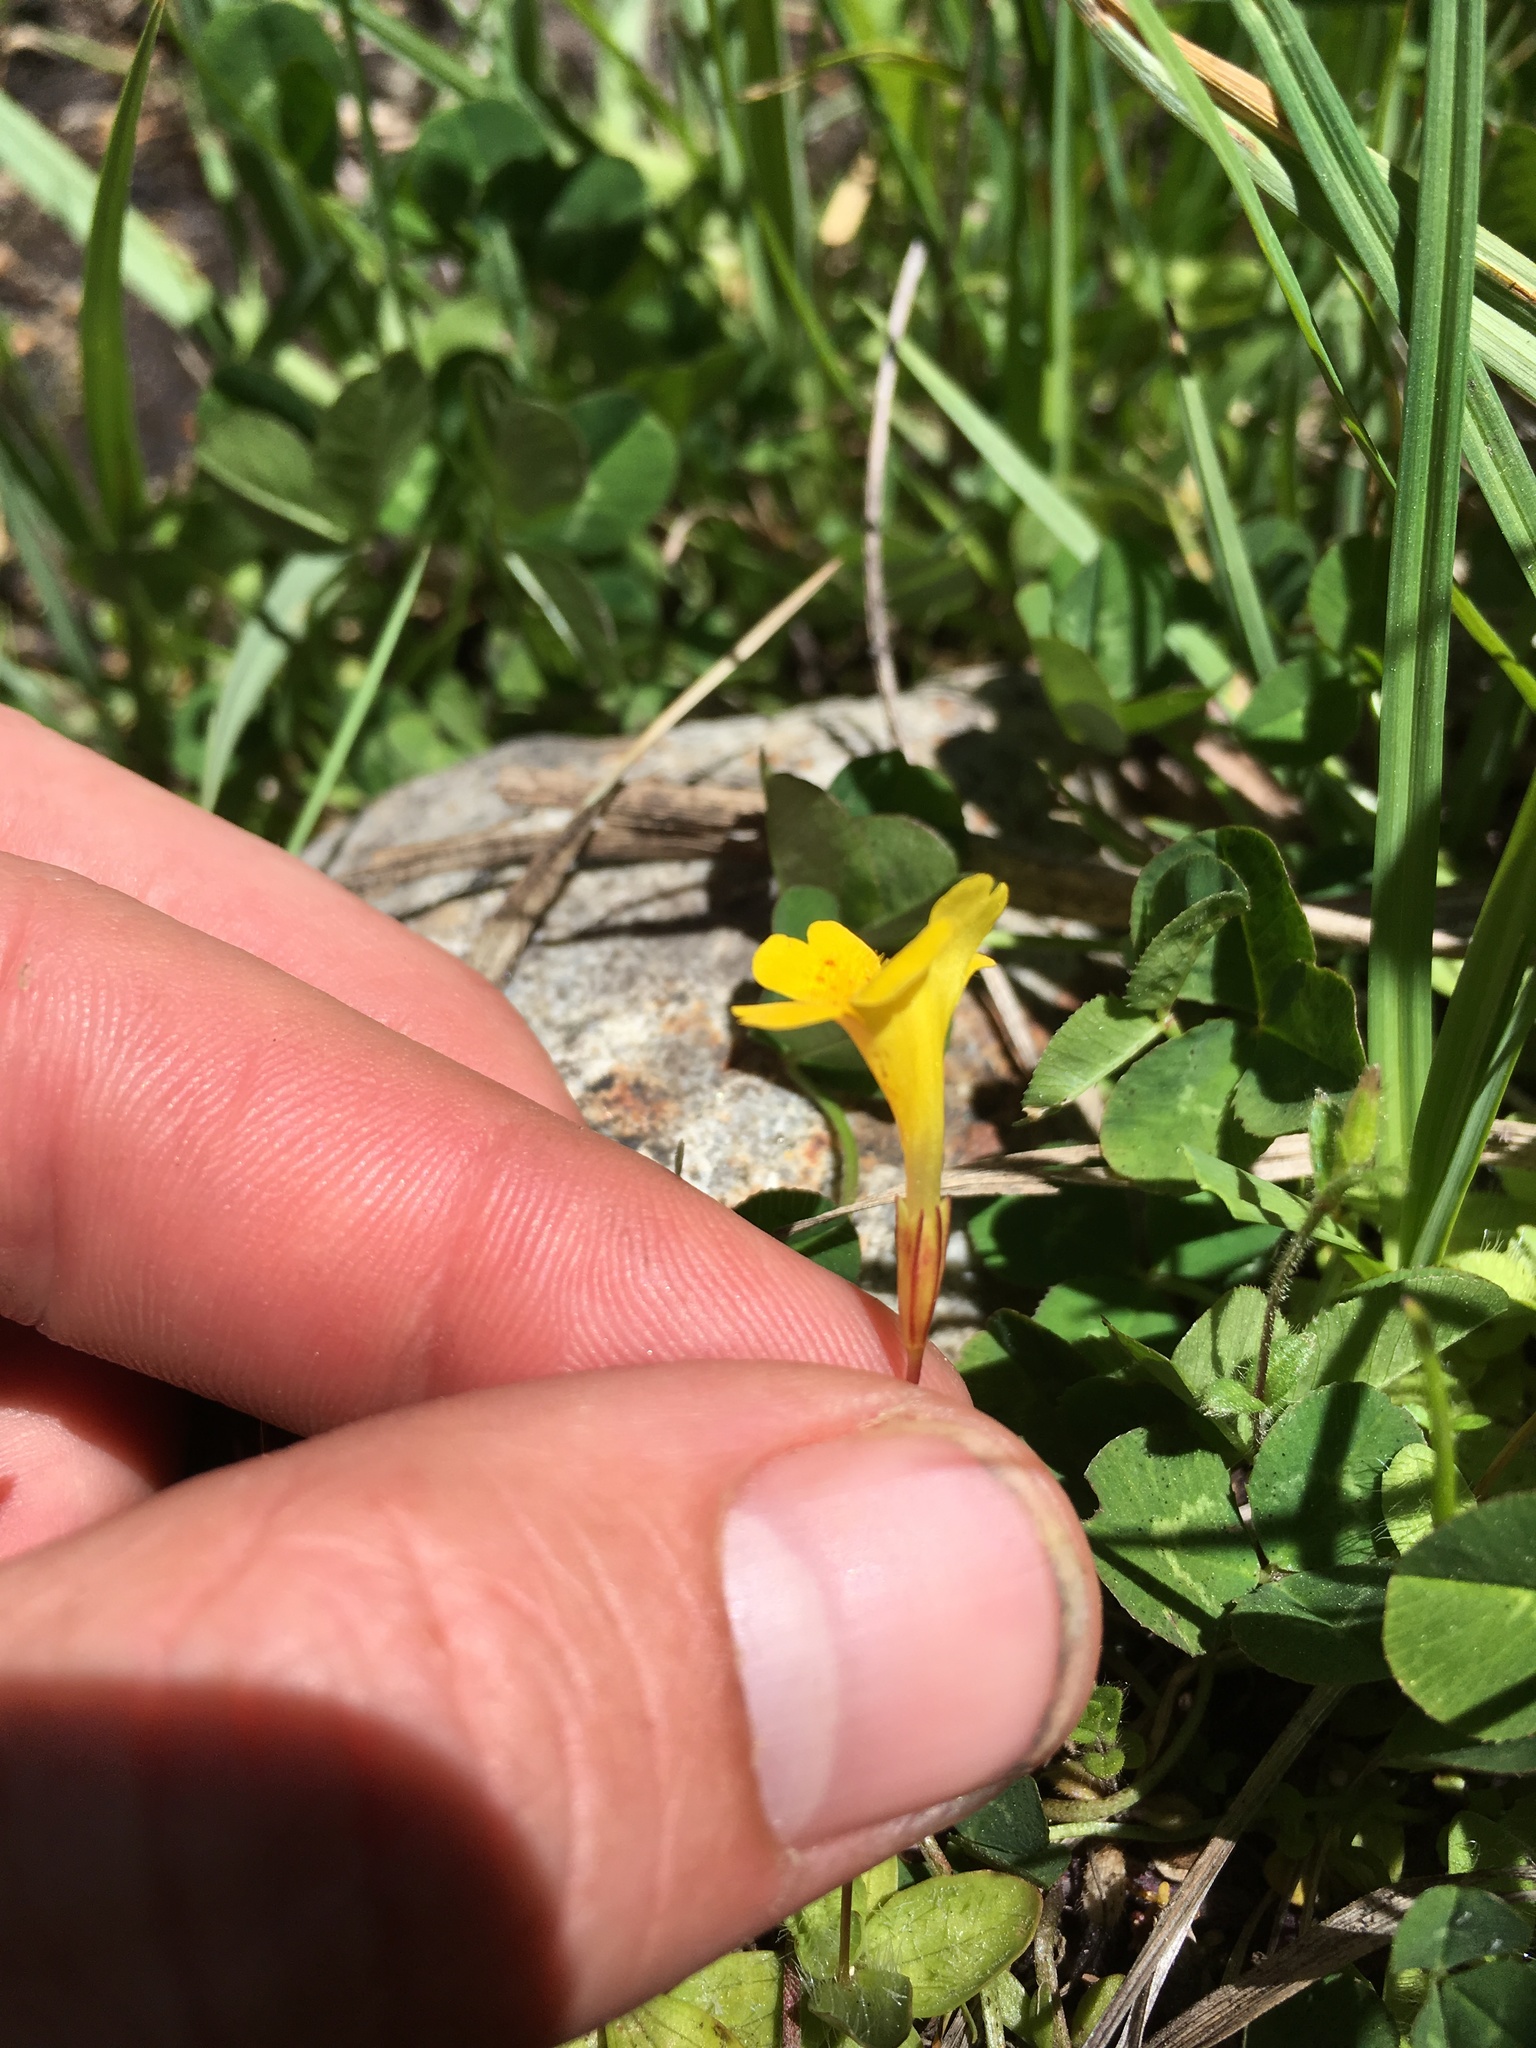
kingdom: Plantae
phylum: Tracheophyta
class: Magnoliopsida
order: Lamiales
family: Phrymaceae
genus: Erythranthe
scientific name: Erythranthe primuloides
